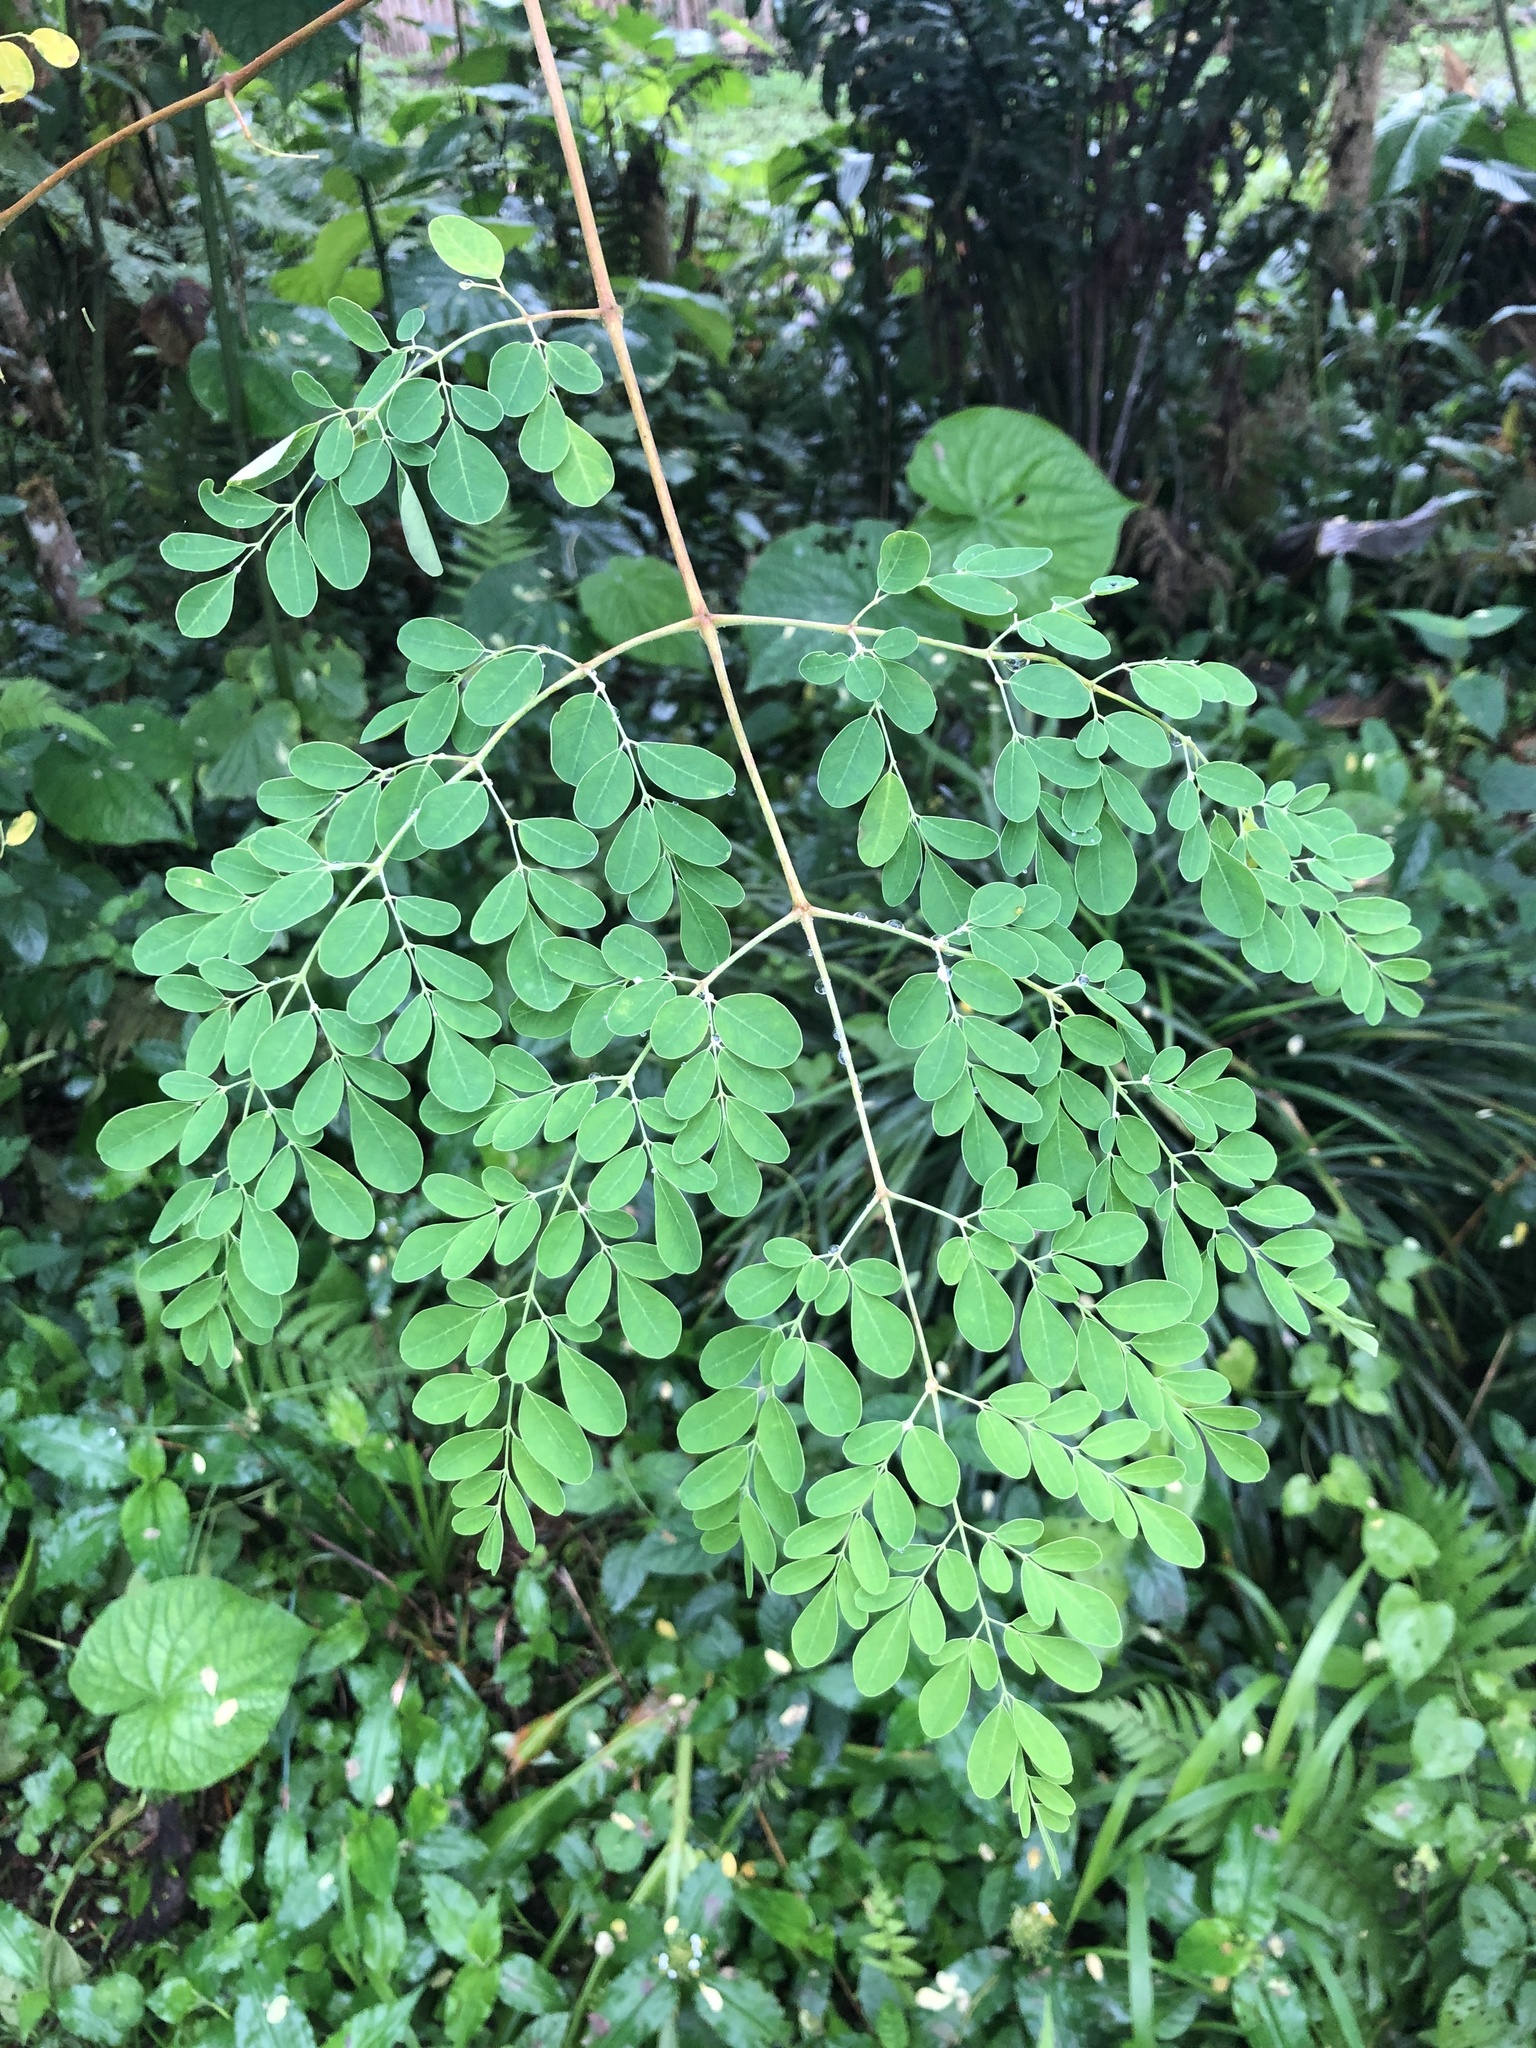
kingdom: Plantae
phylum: Tracheophyta
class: Magnoliopsida
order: Brassicales
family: Moringaceae
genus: Moringa
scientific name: Moringa oleifera
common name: Horseradish-tree
